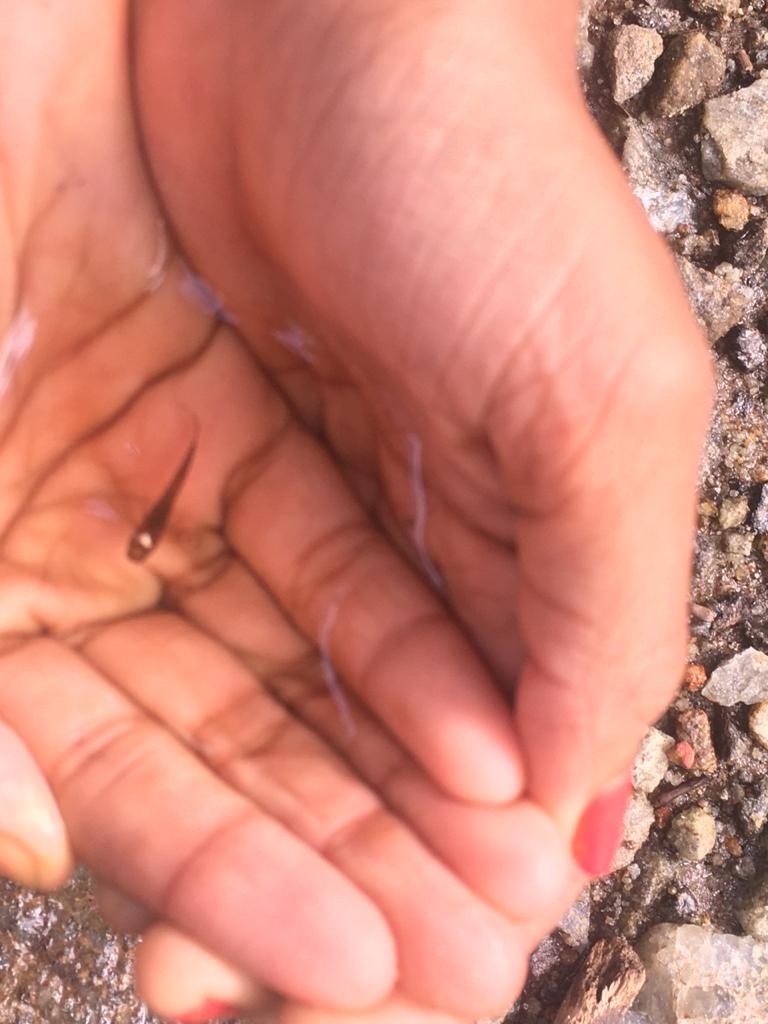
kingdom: Animalia
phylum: Chordata
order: Cyprinodontiformes
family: Aplocheilidae
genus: Aplocheilus
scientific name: Aplocheilus lineatus
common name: Striped panchax
